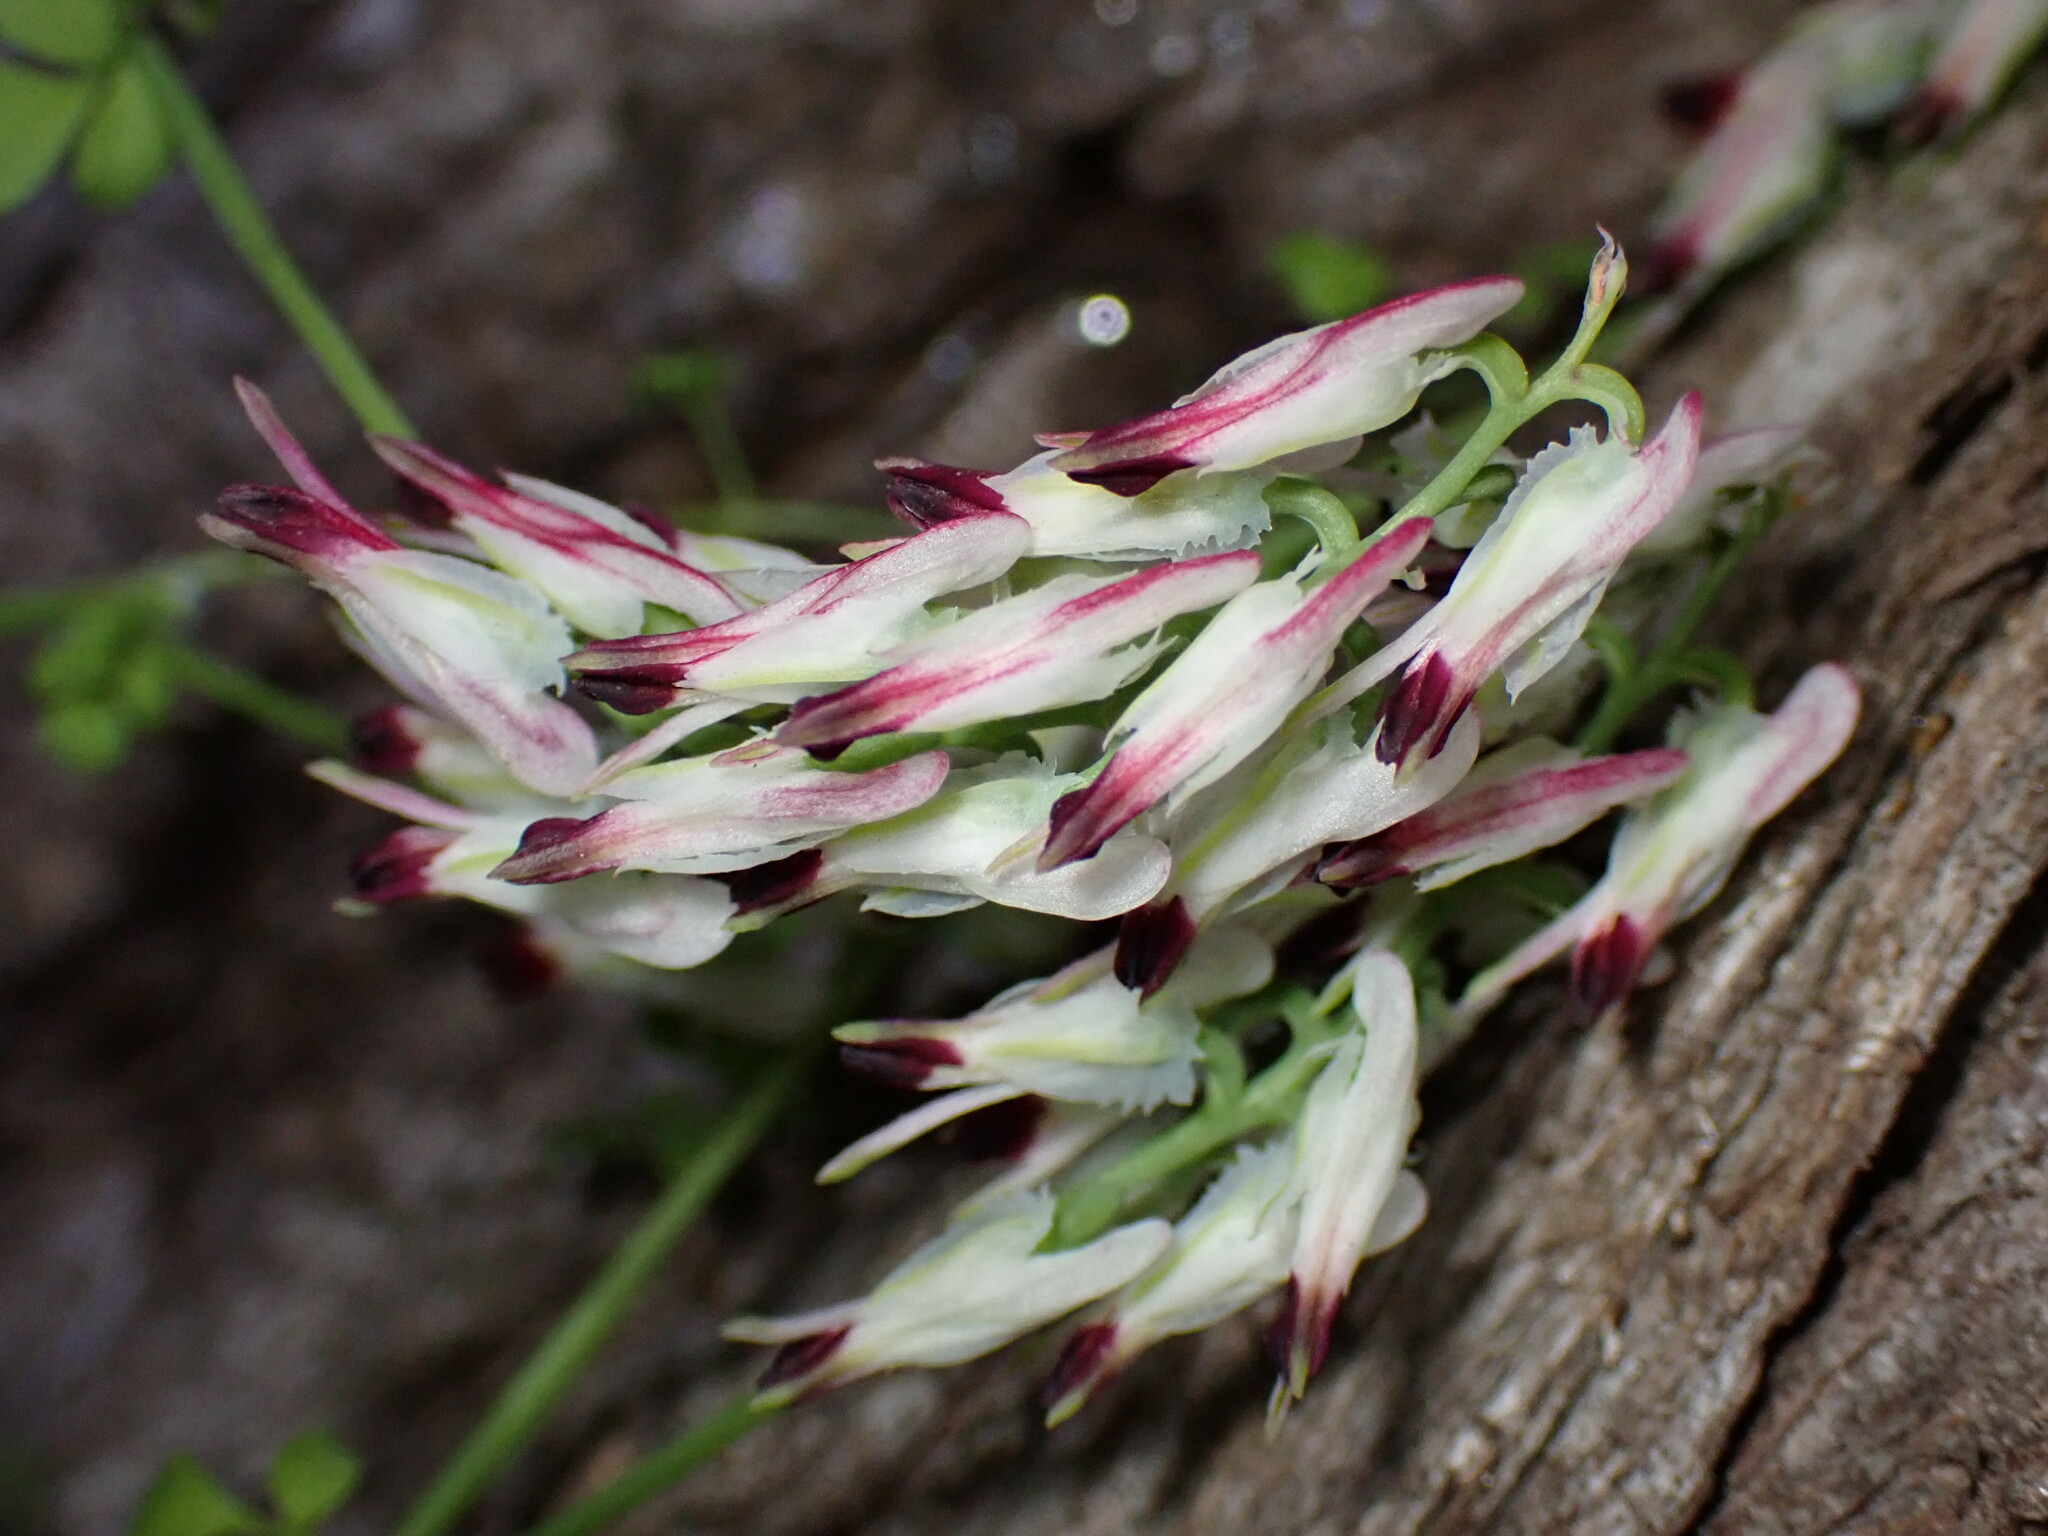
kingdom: Plantae
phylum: Tracheophyta
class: Magnoliopsida
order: Ranunculales
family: Papaveraceae
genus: Fumaria
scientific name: Fumaria capreolata
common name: White ramping-fumitory
